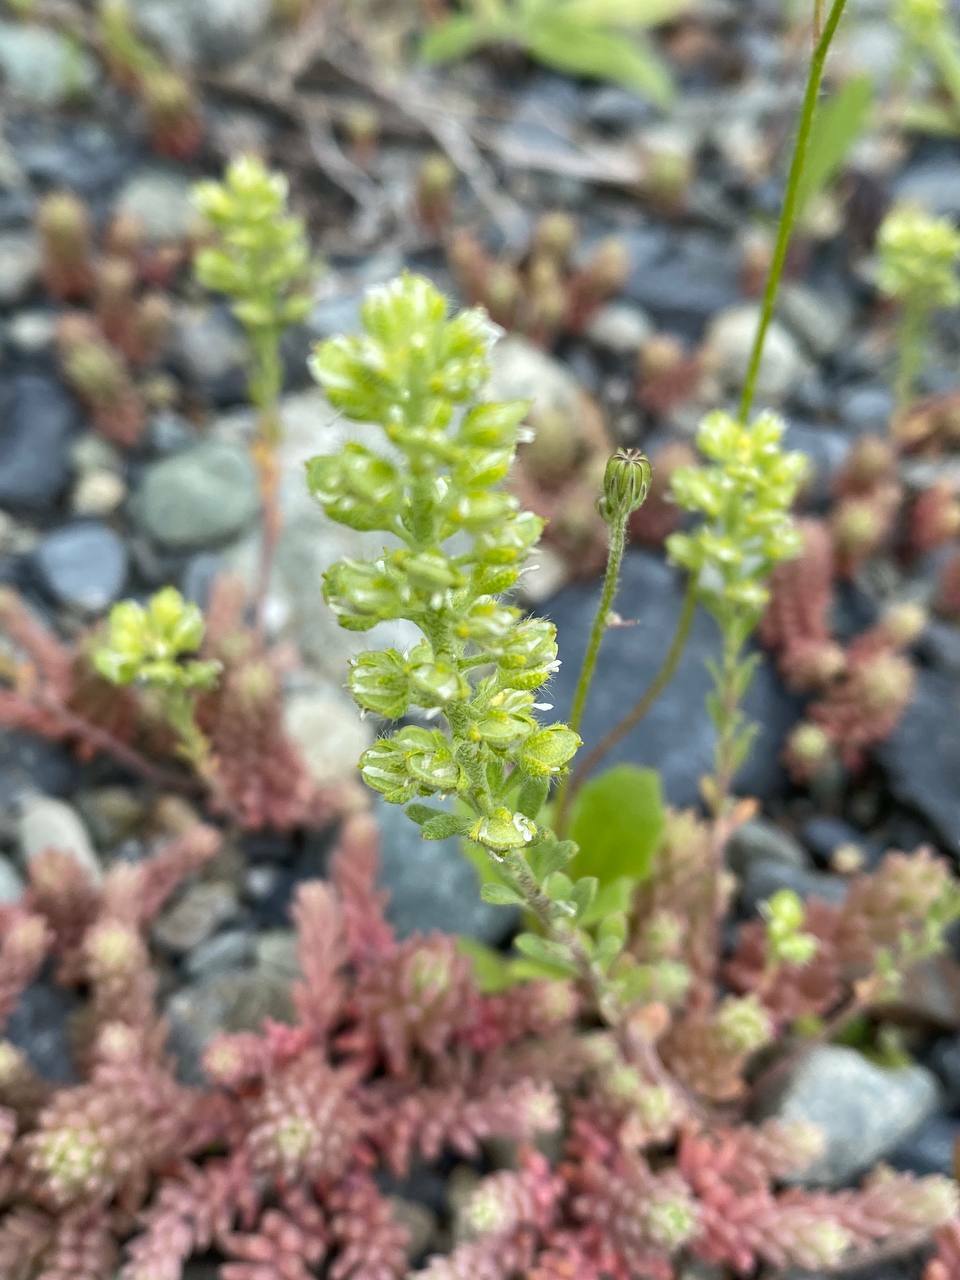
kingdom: Plantae
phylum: Tracheophyta
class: Magnoliopsida
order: Brassicales
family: Brassicaceae
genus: Alyssum
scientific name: Alyssum alyssoides
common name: Small alison
